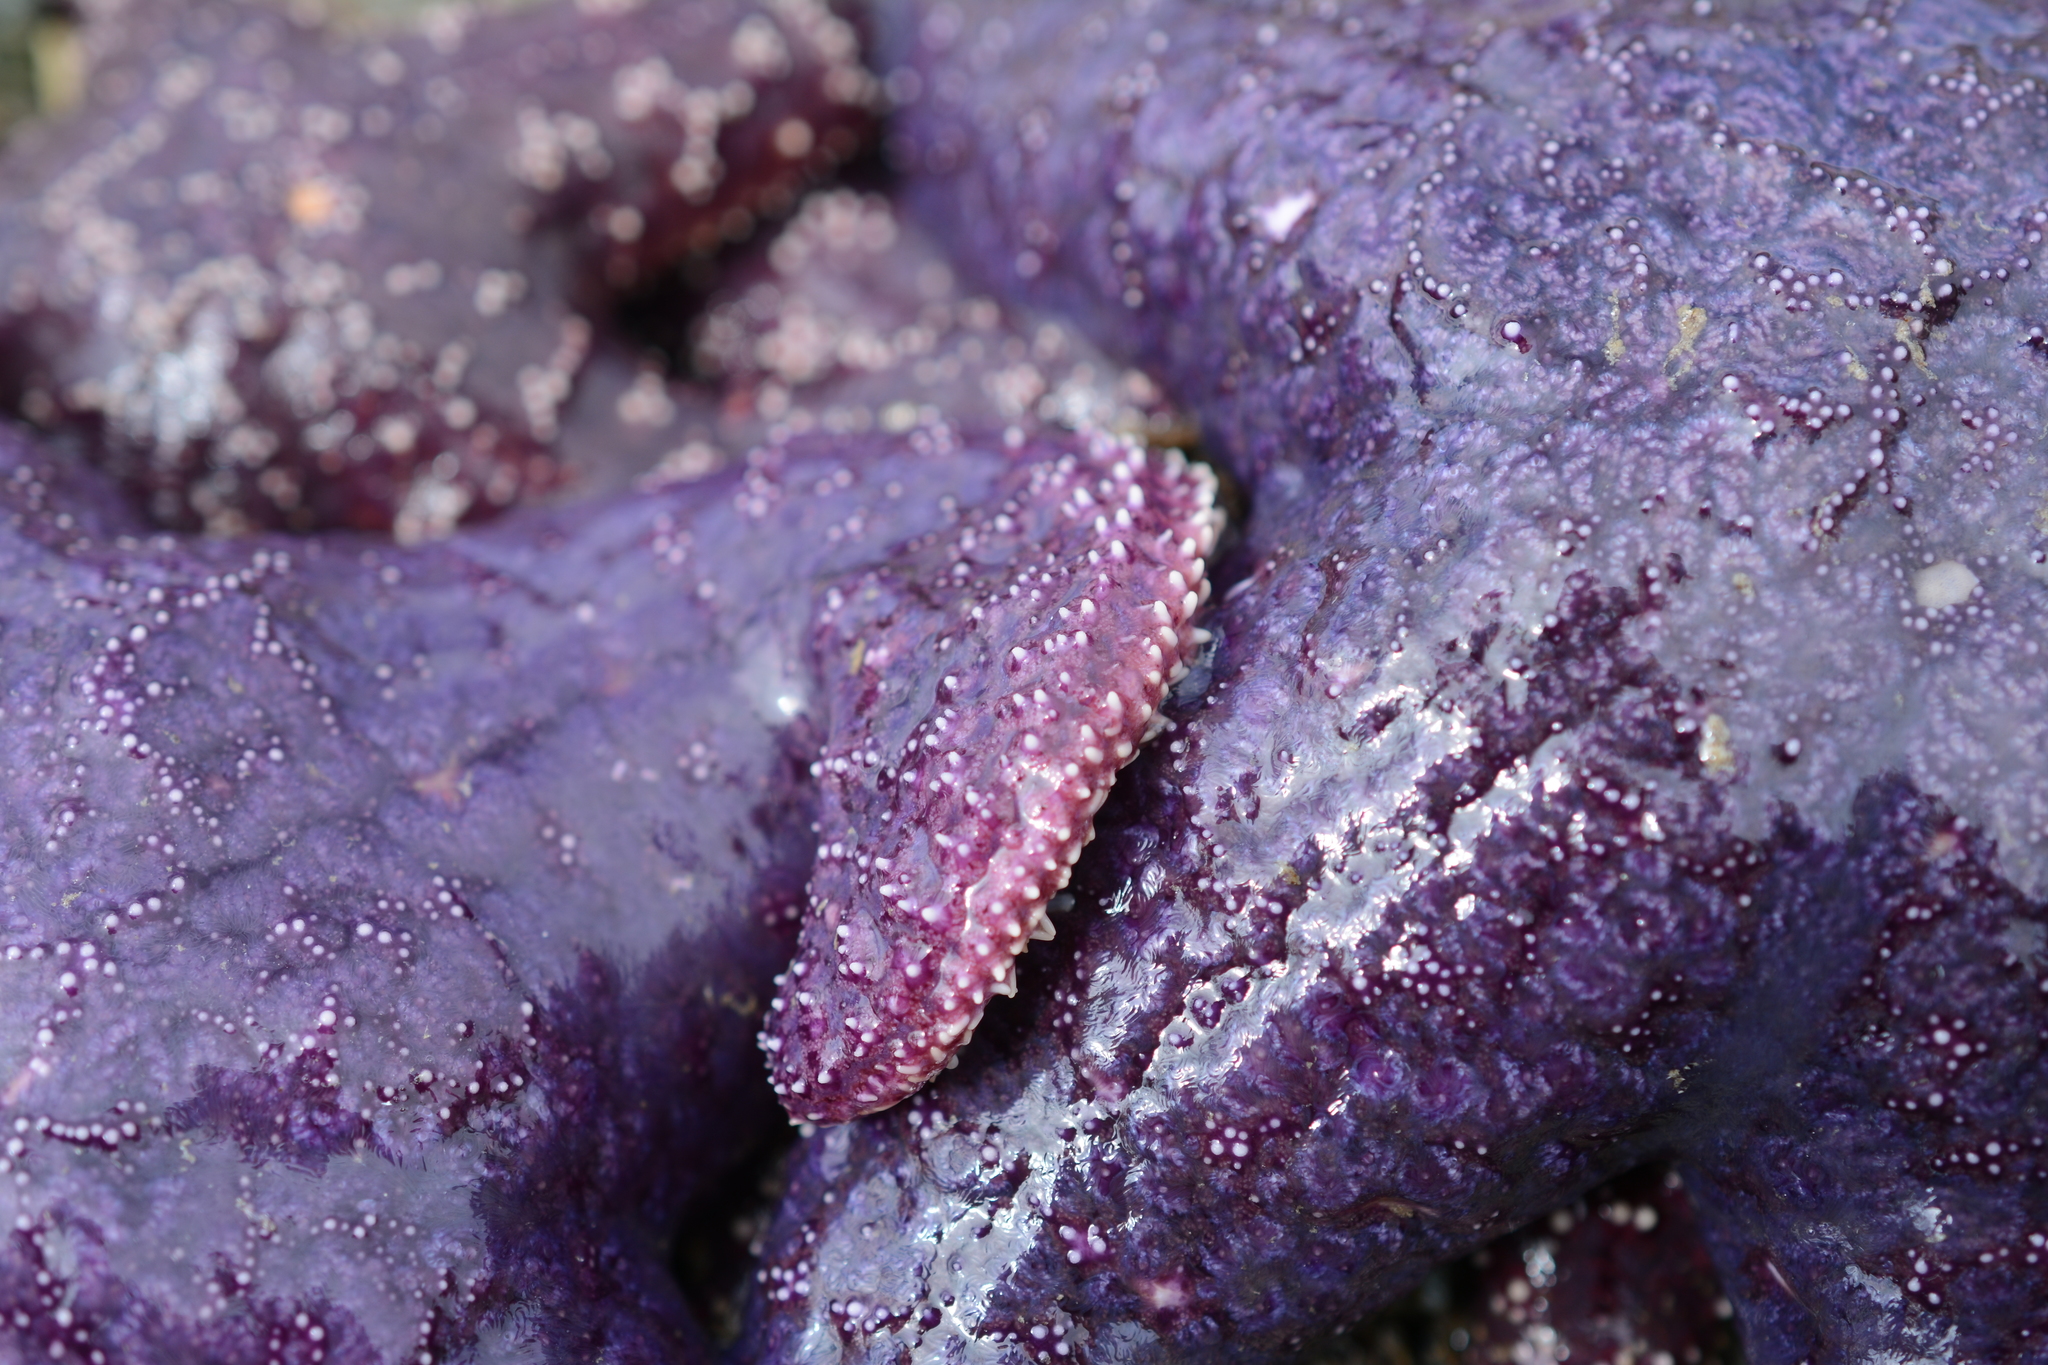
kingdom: Animalia
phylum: Echinodermata
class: Asteroidea
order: Forcipulatida
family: Asteriidae
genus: Pisaster
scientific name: Pisaster ochraceus
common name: Ochre stars
